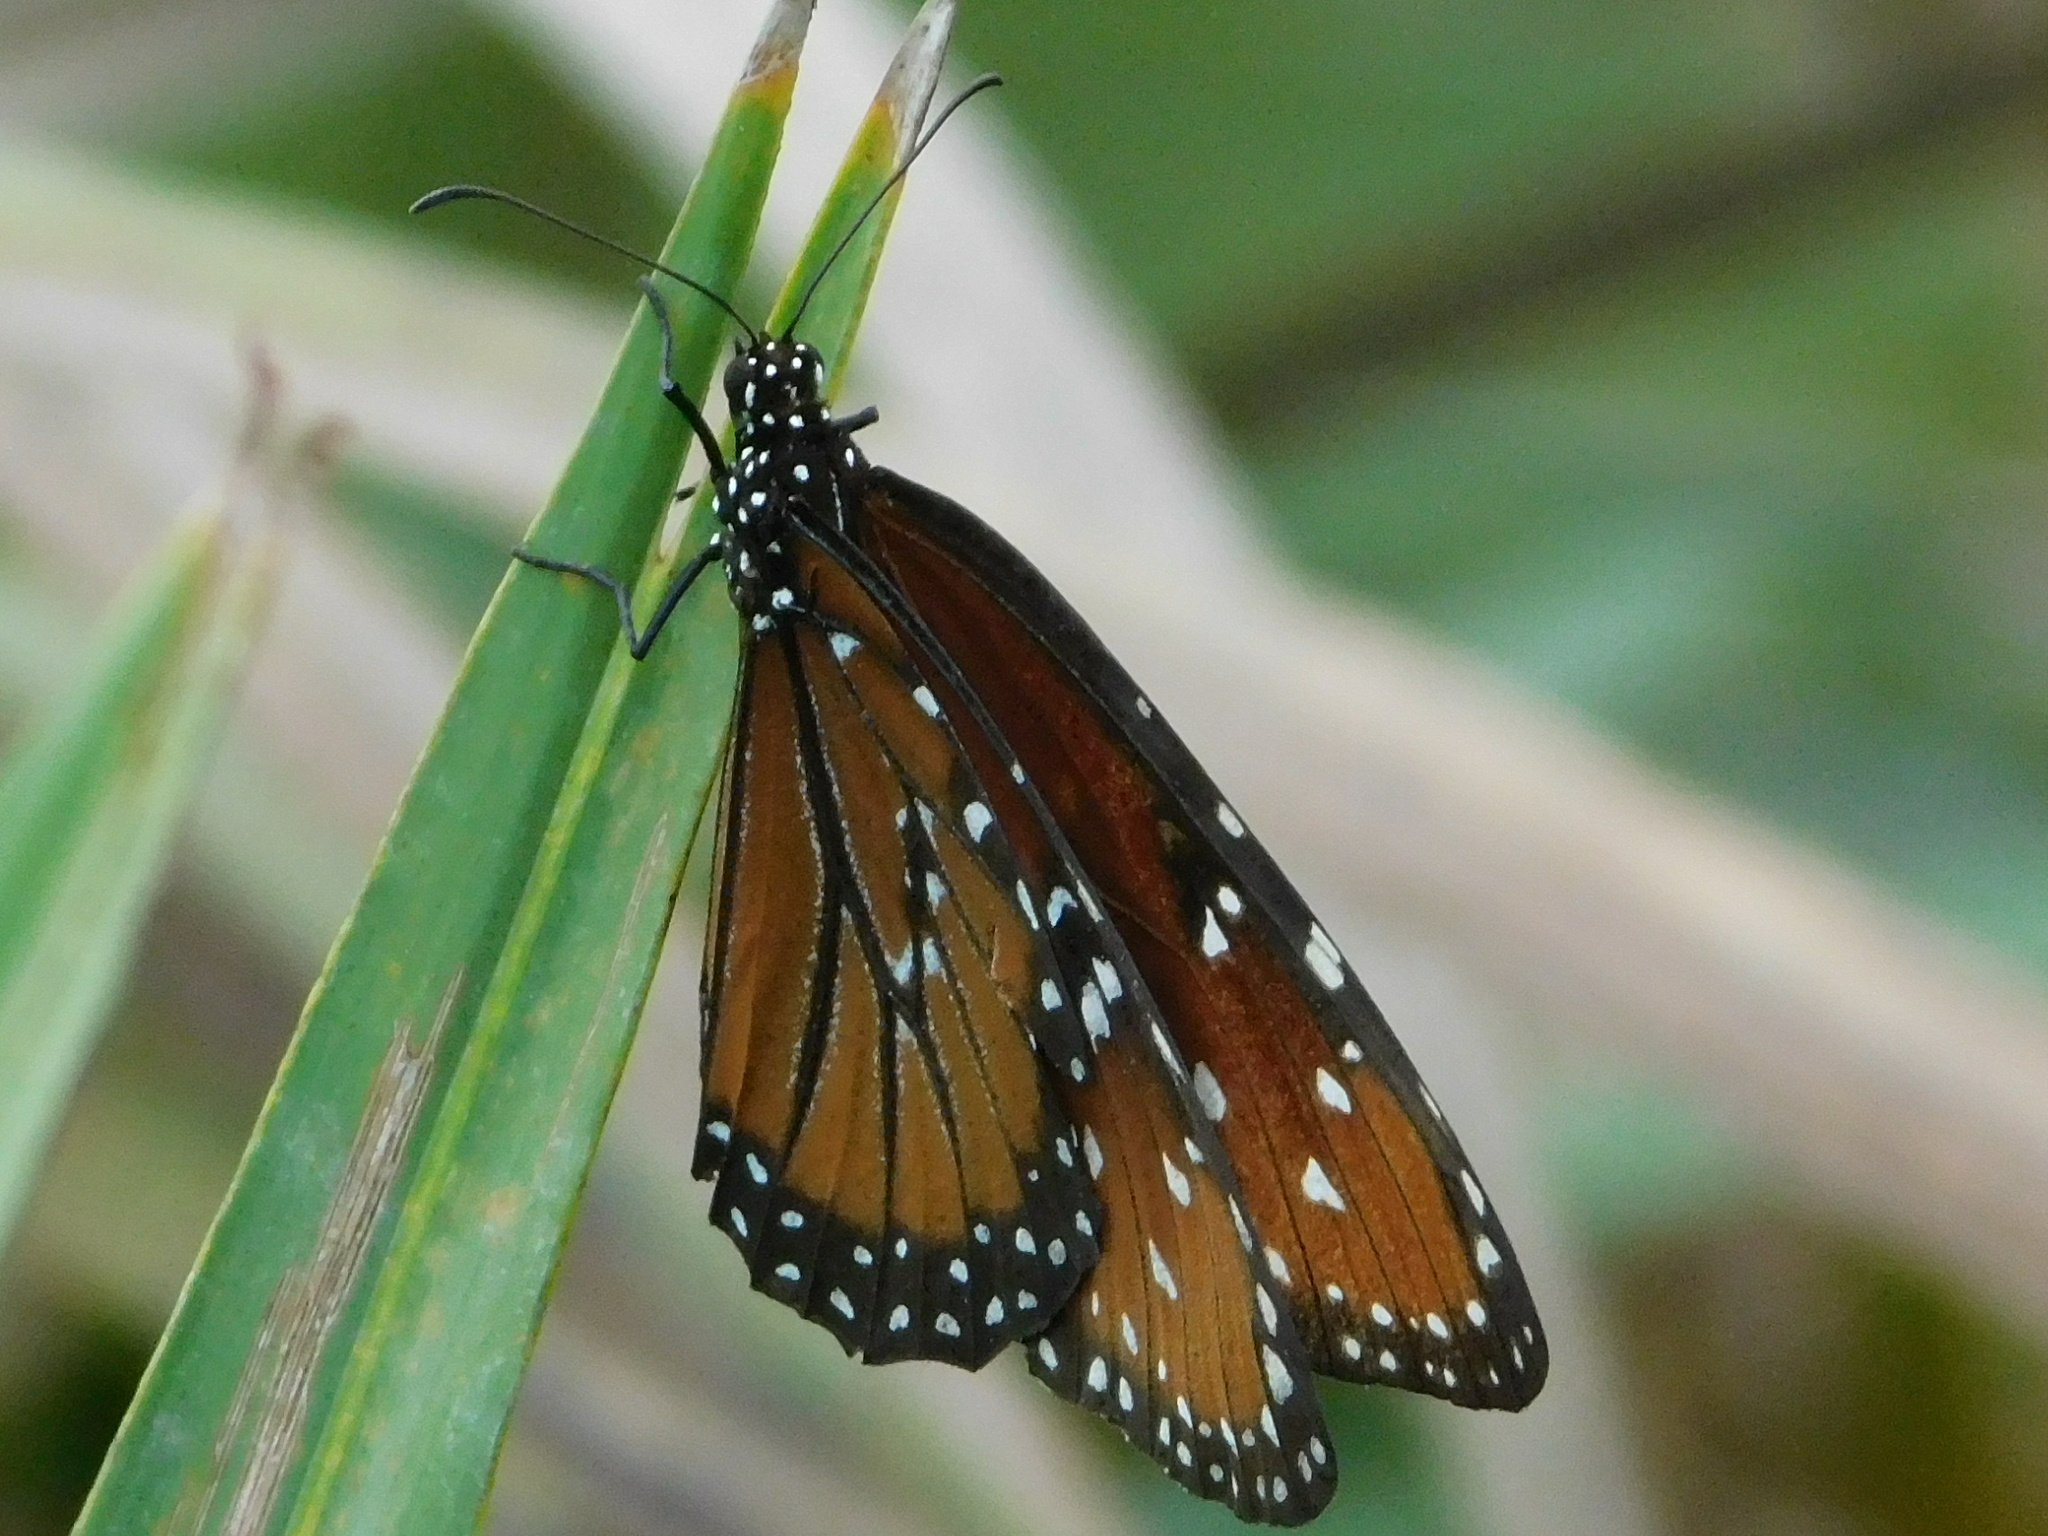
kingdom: Animalia
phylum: Arthropoda
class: Insecta
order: Lepidoptera
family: Nymphalidae
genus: Danaus
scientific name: Danaus gilippus
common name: Queen
